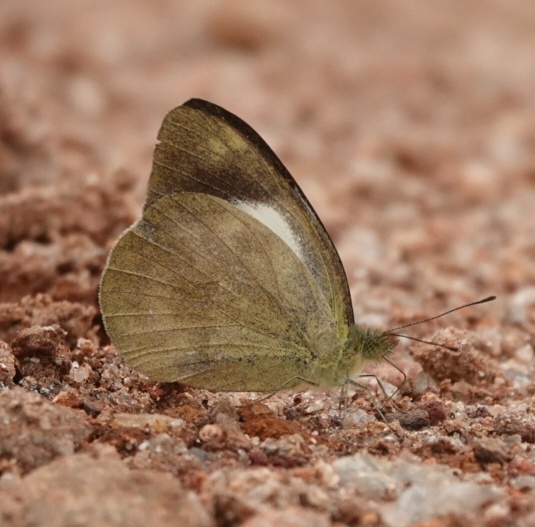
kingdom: Animalia
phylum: Arthropoda
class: Insecta
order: Lepidoptera
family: Pieridae
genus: Cepora
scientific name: Cepora nadina
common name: Lesser gull
